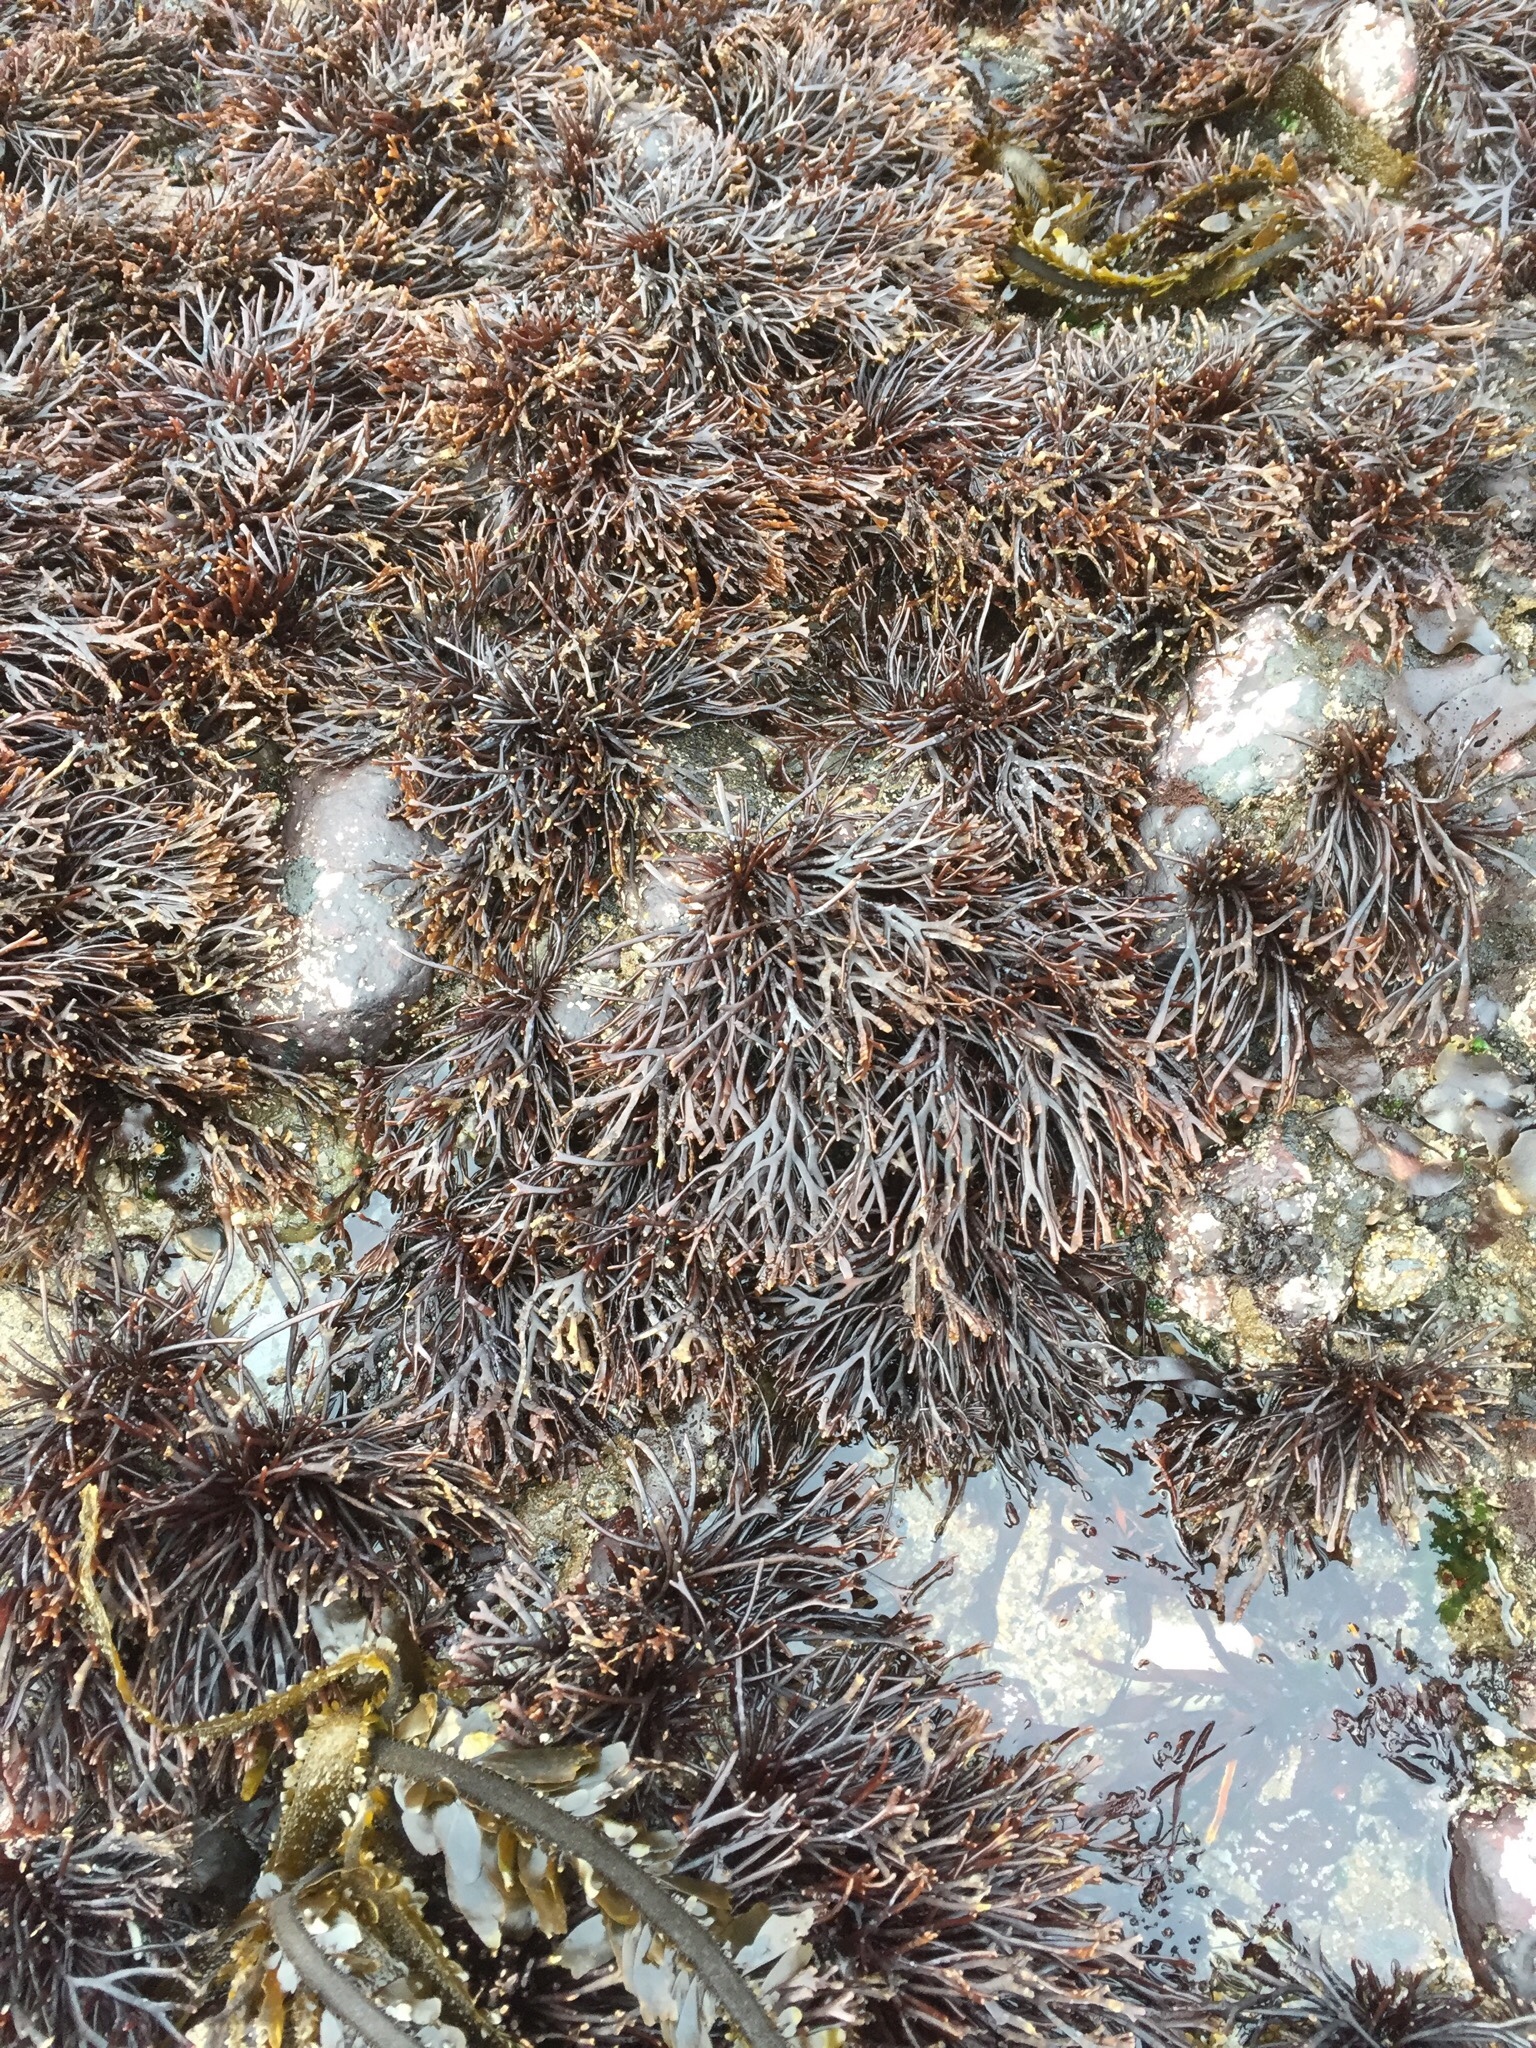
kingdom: Plantae
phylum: Rhodophyta
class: Florideophyceae
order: Gigartinales
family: Phyllophoraceae
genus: Ahnfeltiopsis
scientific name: Ahnfeltiopsis linearis
